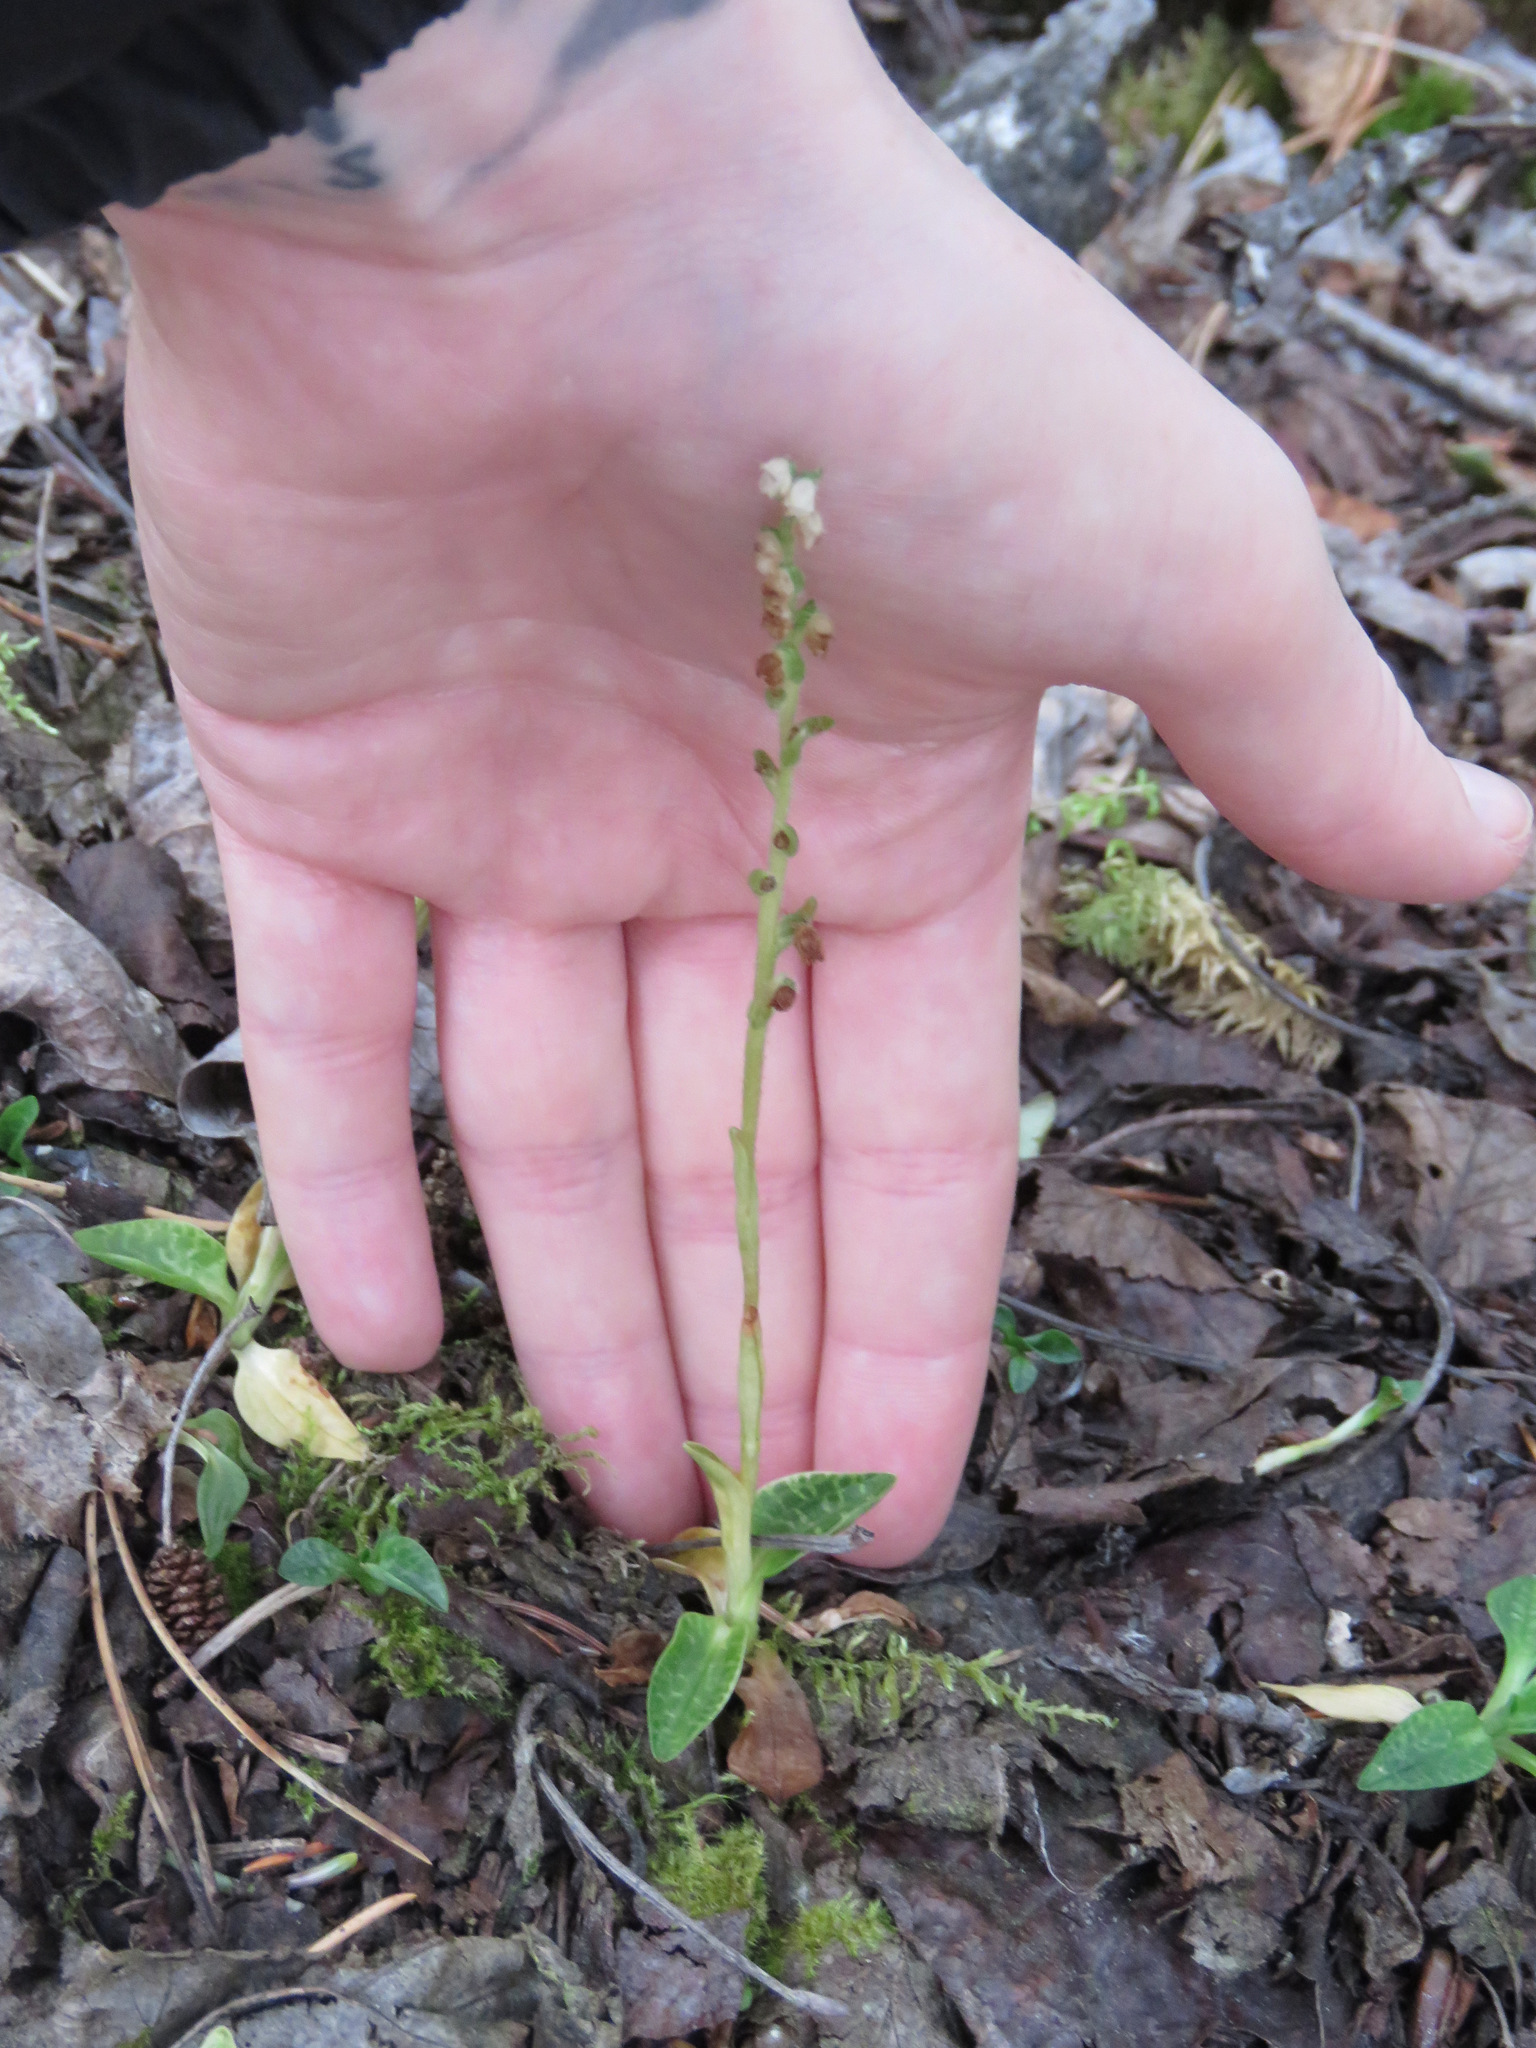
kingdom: Plantae
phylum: Tracheophyta
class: Liliopsida
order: Asparagales
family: Orchidaceae
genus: Goodyera
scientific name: Goodyera repens
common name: Creeping lady's-tresses
